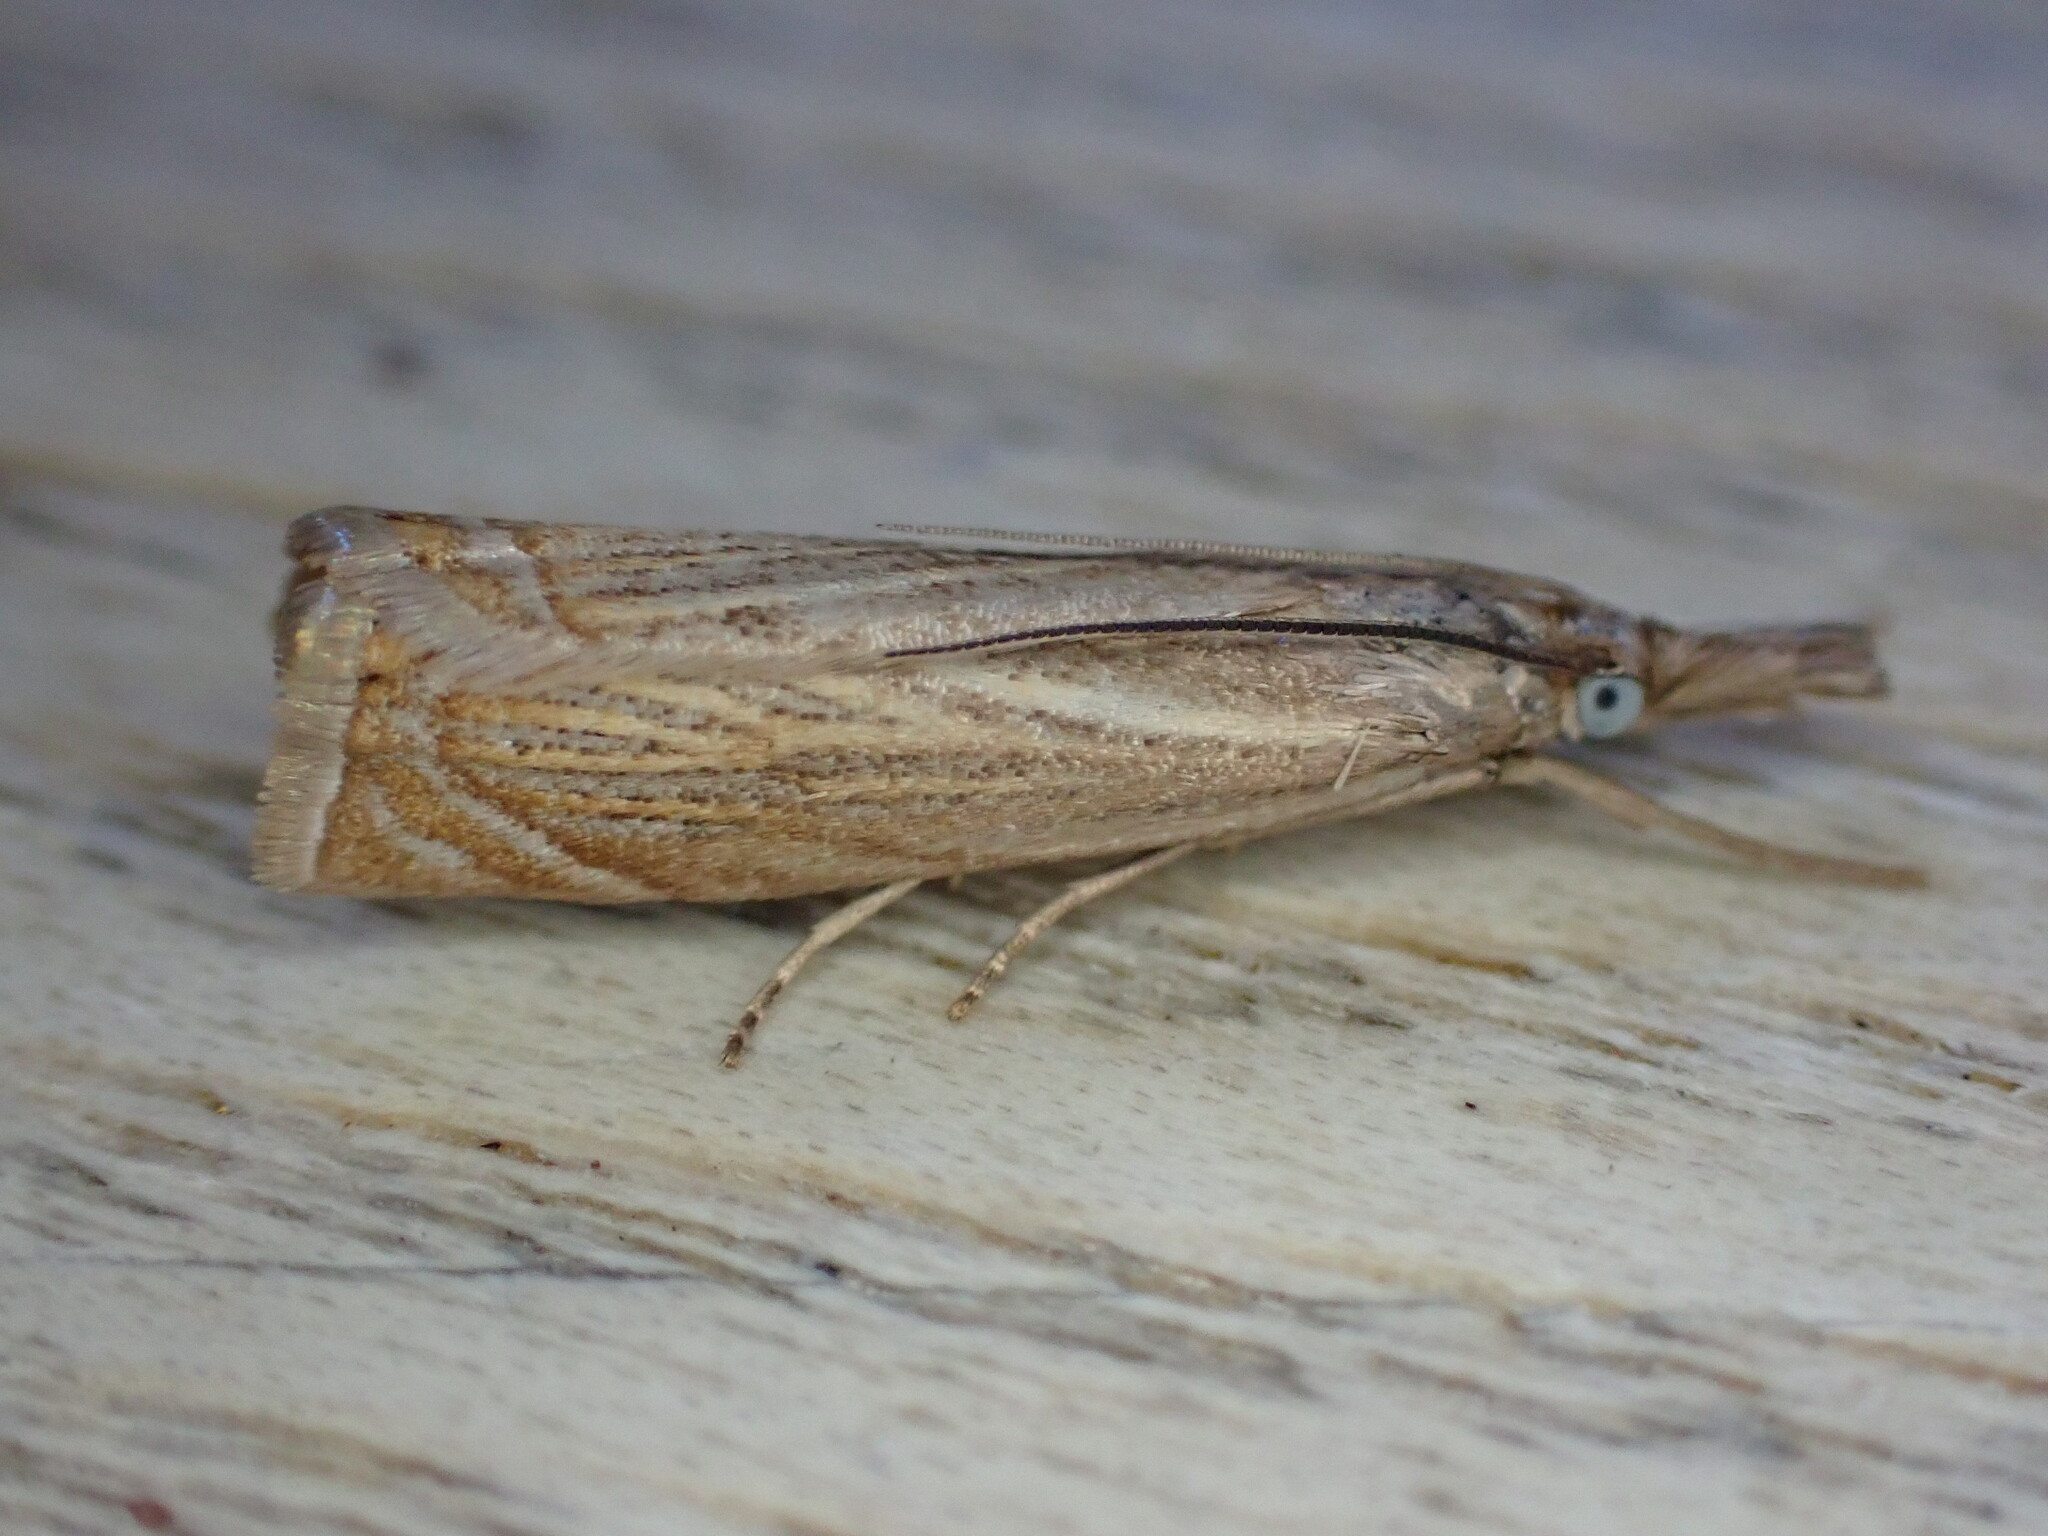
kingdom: Animalia
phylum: Arthropoda
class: Insecta
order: Lepidoptera
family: Crambidae
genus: Chrysoteuchia
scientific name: Chrysoteuchia culmella
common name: Garden grass-veneer
